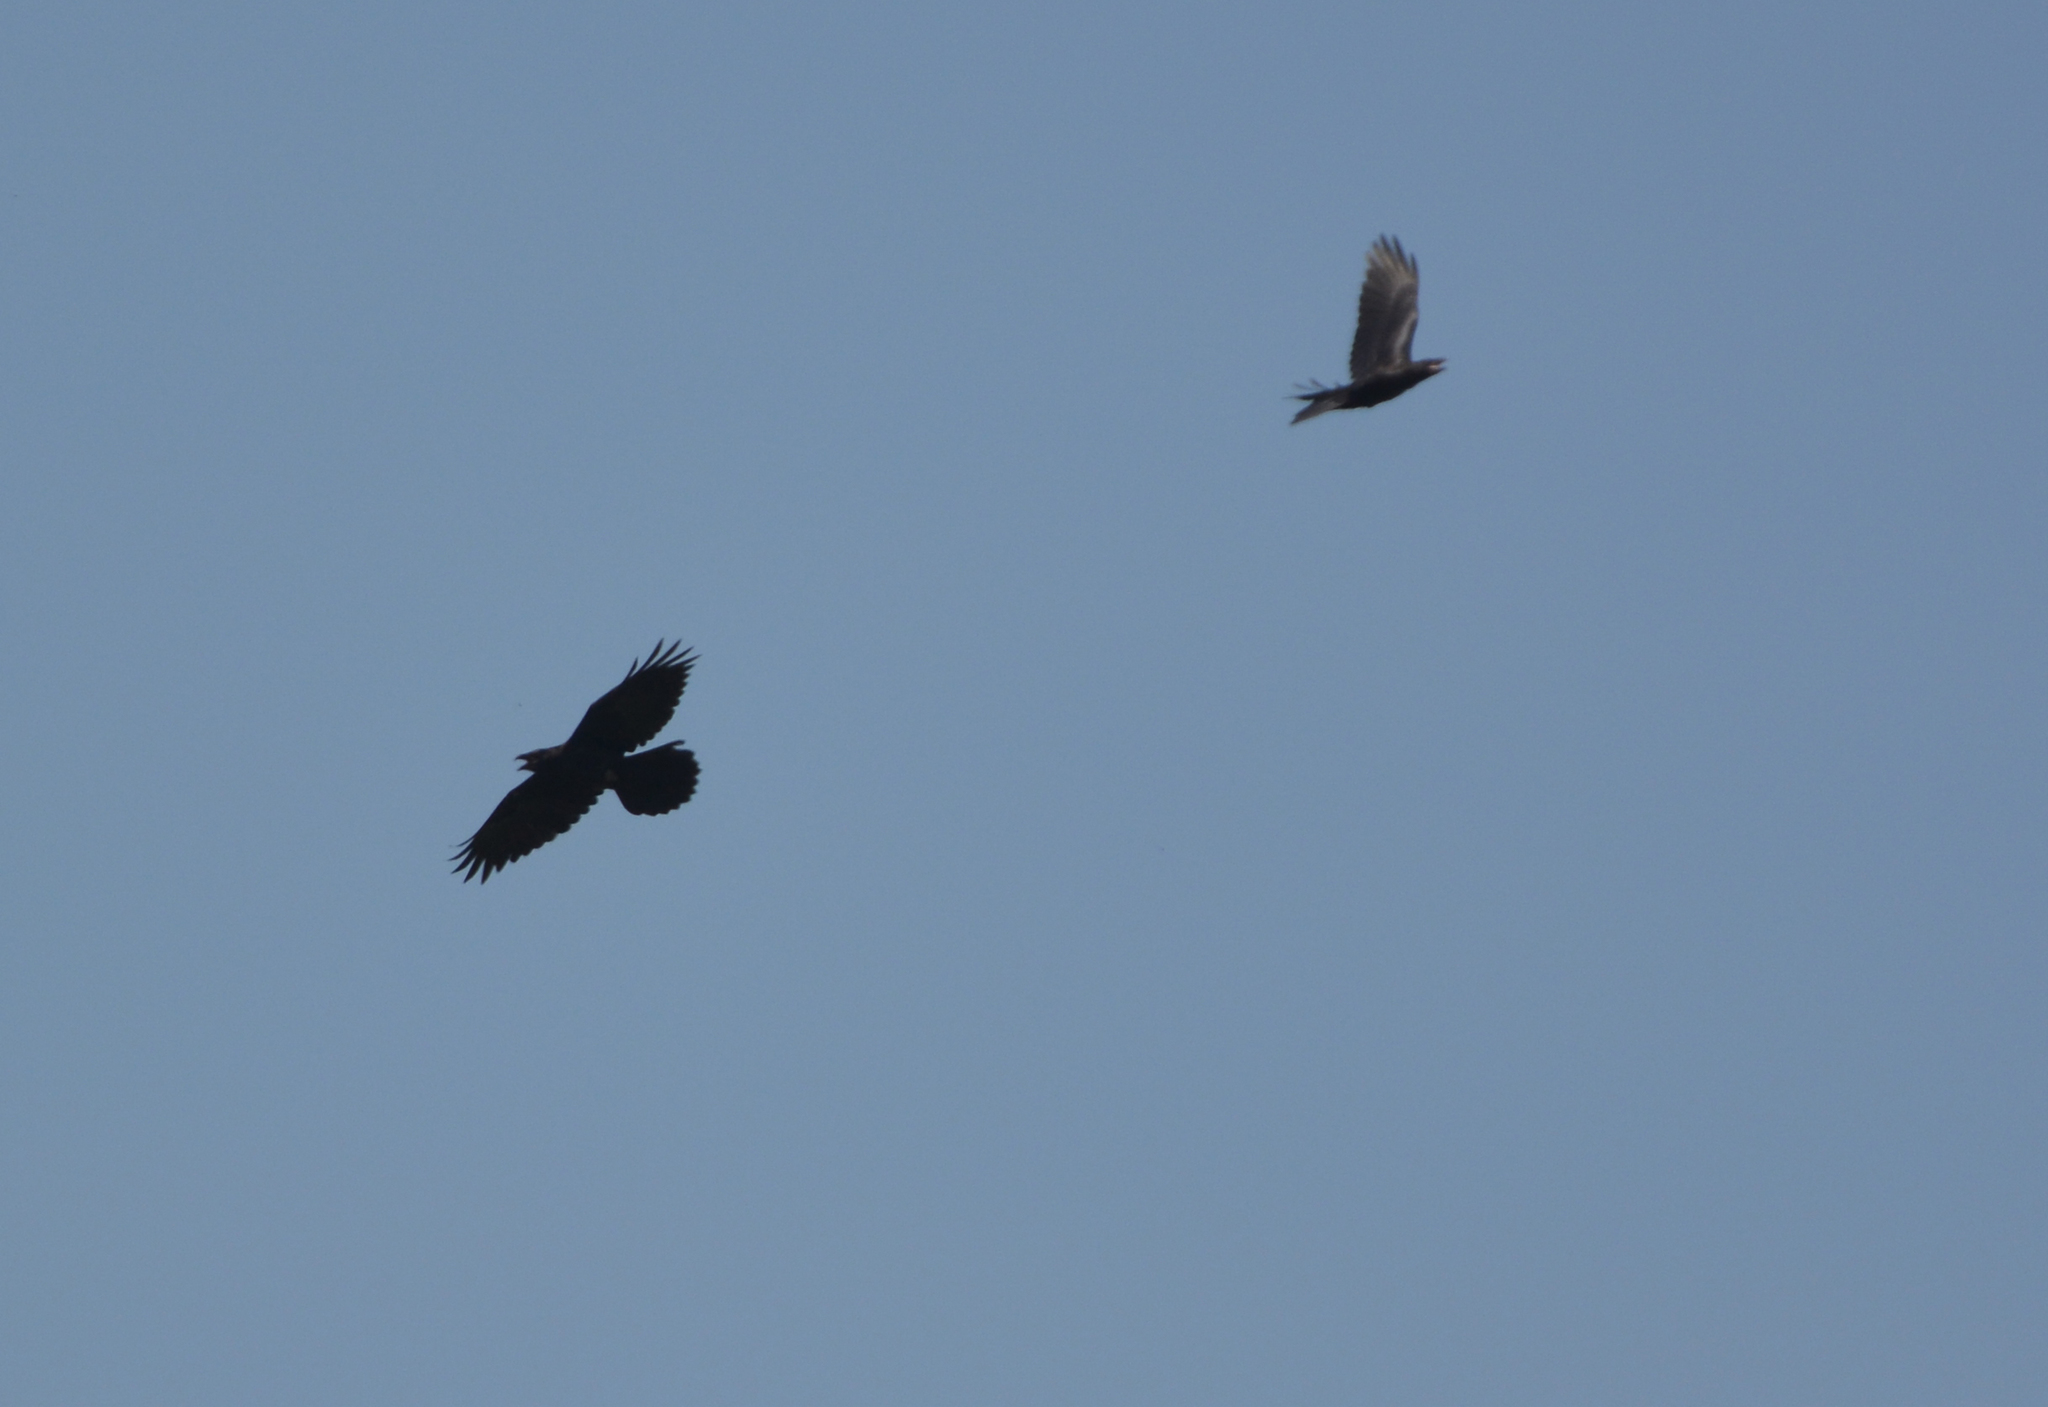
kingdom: Animalia
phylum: Chordata
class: Aves
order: Passeriformes
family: Corvidae
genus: Corvus
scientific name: Corvus corax
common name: Common raven
